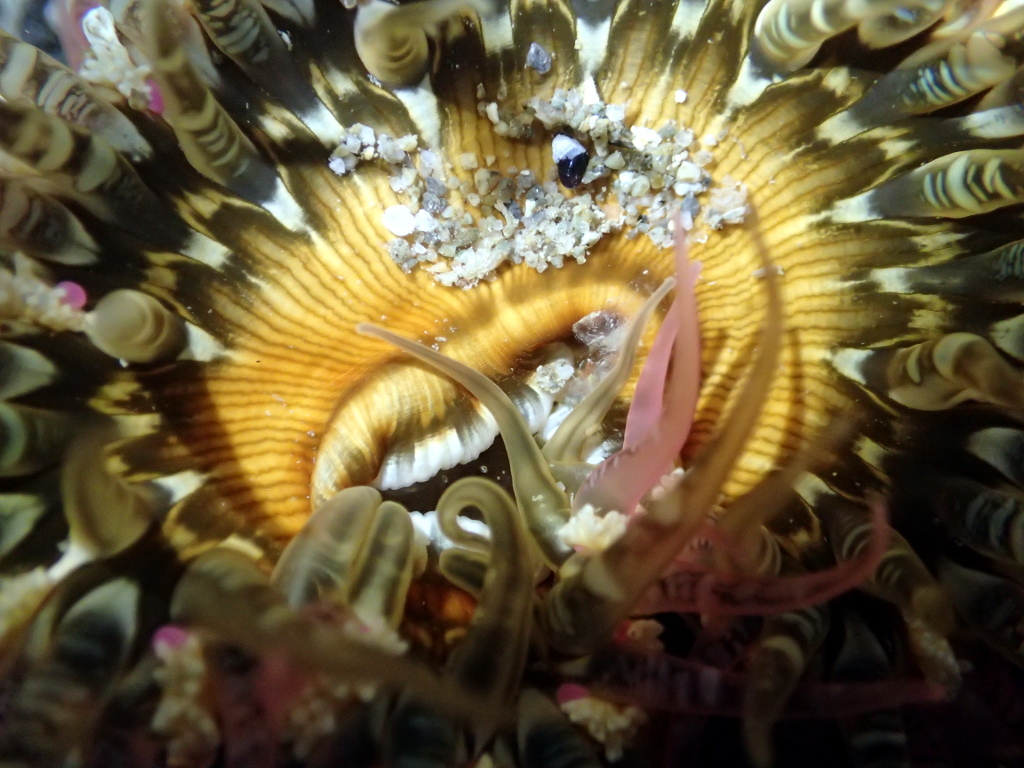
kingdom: Animalia
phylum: Cnidaria
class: Anthozoa
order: Actiniaria
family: Actiniidae
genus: Oulactis
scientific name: Oulactis muscosa
